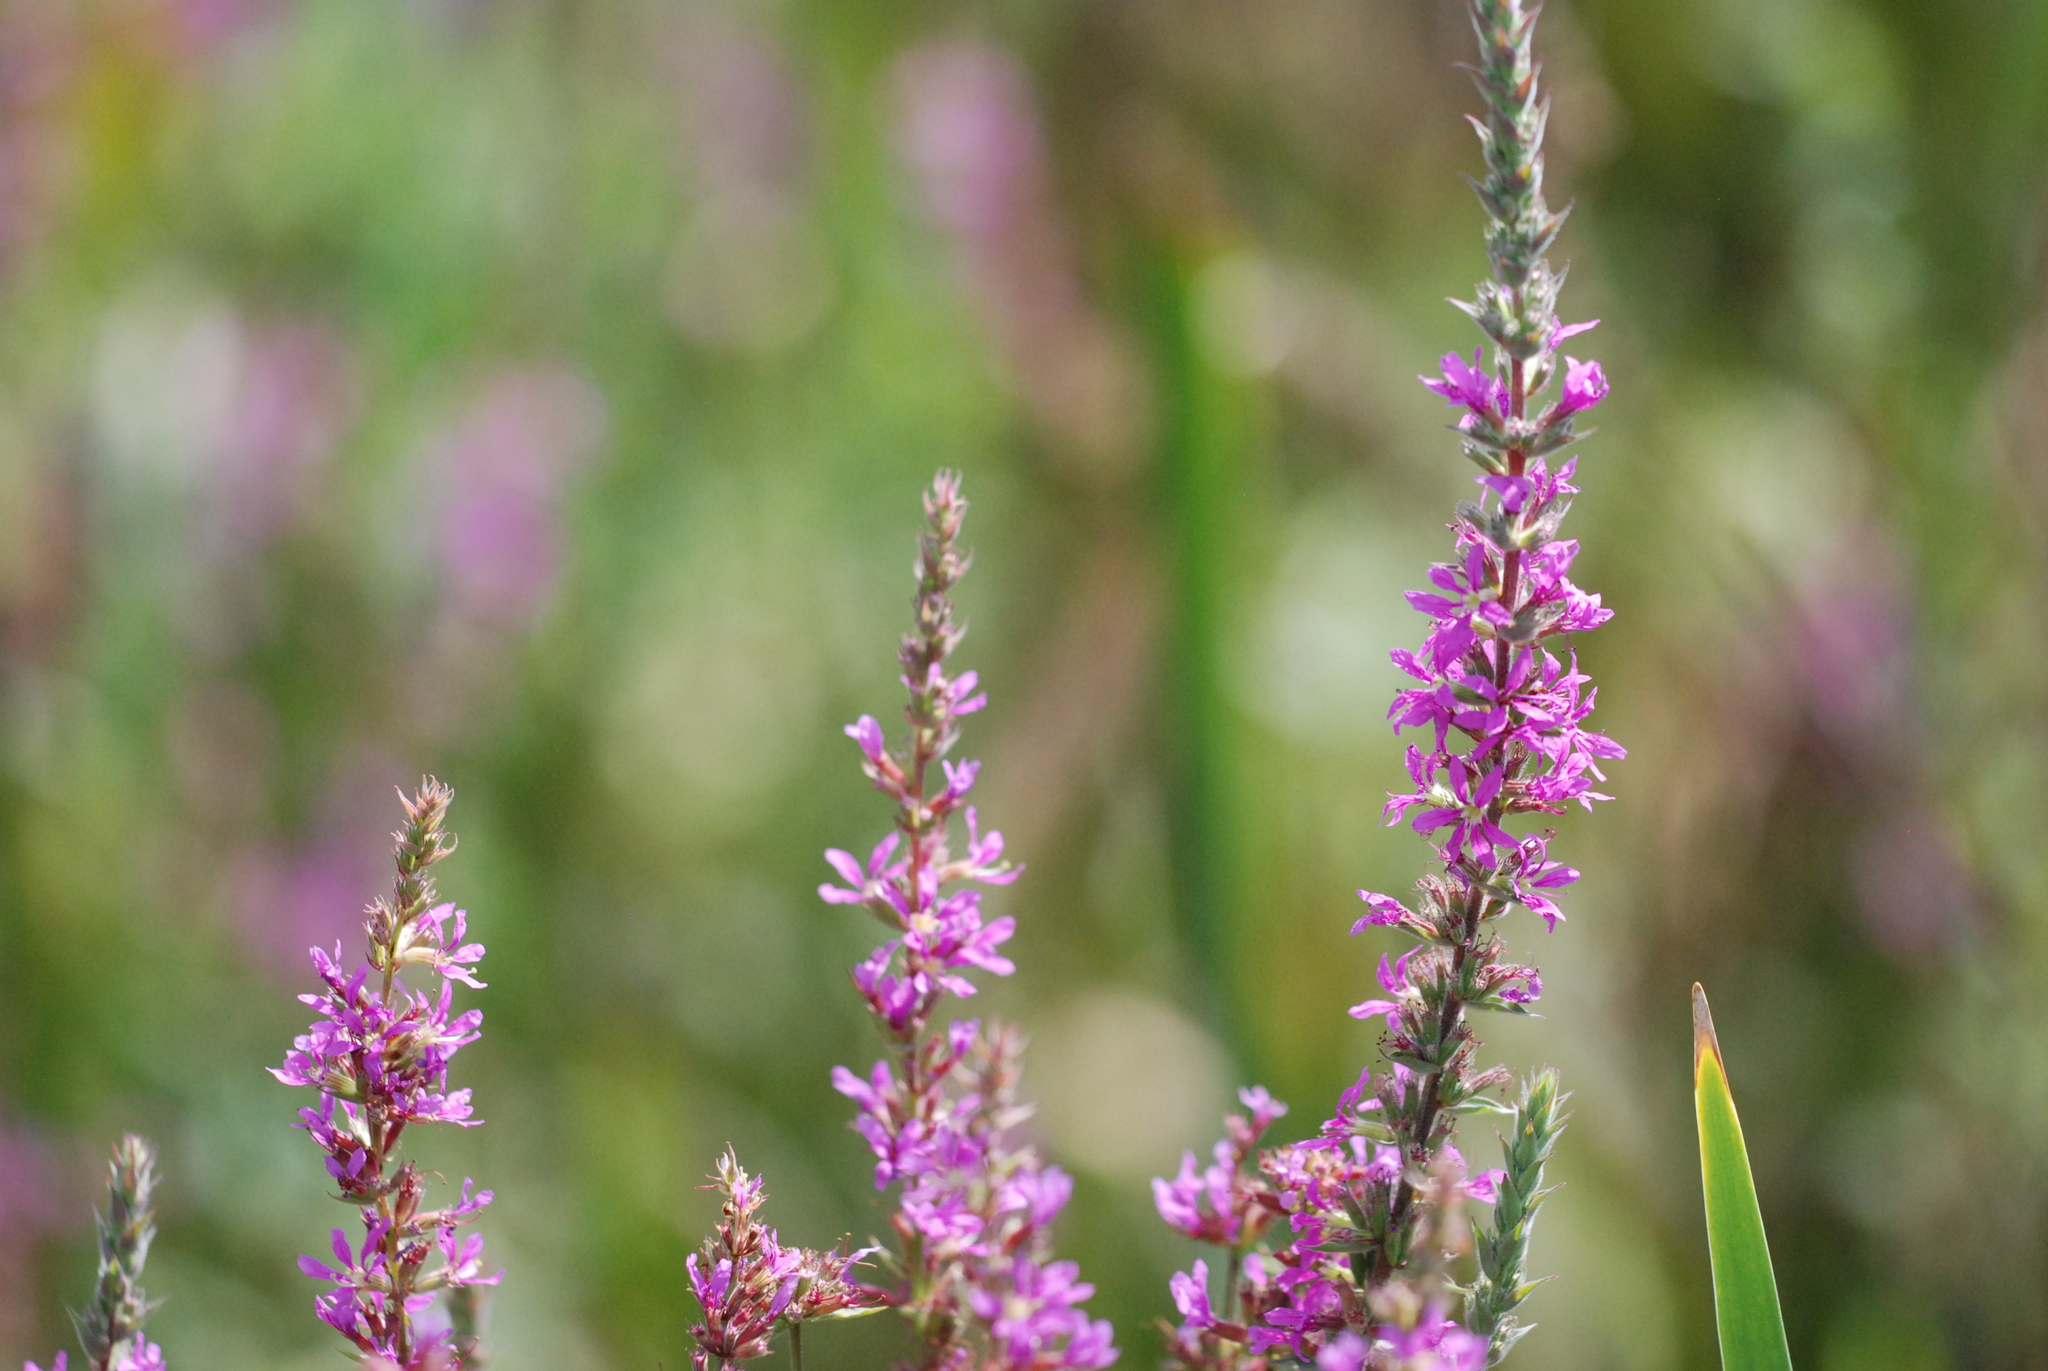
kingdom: Plantae
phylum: Tracheophyta
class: Magnoliopsida
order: Myrtales
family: Lythraceae
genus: Lythrum
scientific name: Lythrum salicaria
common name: Purple loosestrife
